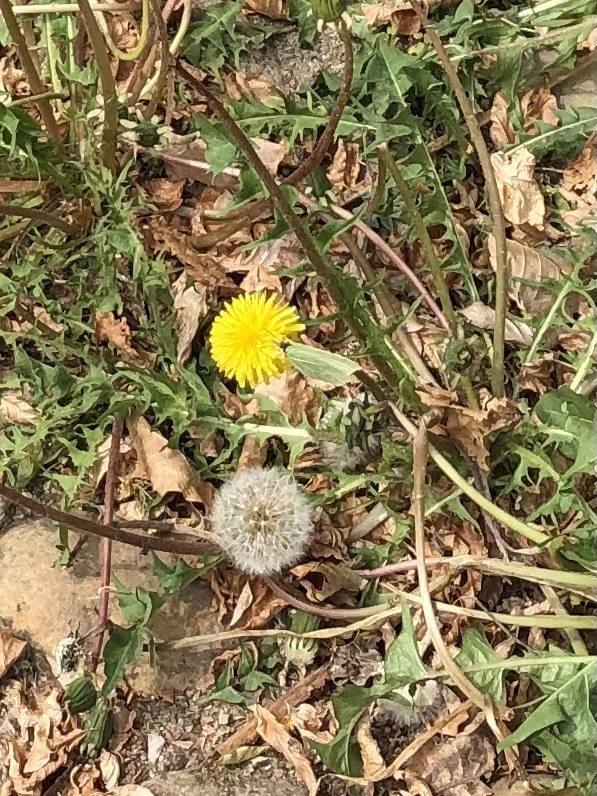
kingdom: Animalia
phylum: Arthropoda
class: Insecta
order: Lepidoptera
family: Pieridae
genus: Gonepteryx
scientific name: Gonepteryx rhamni
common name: Brimstone
